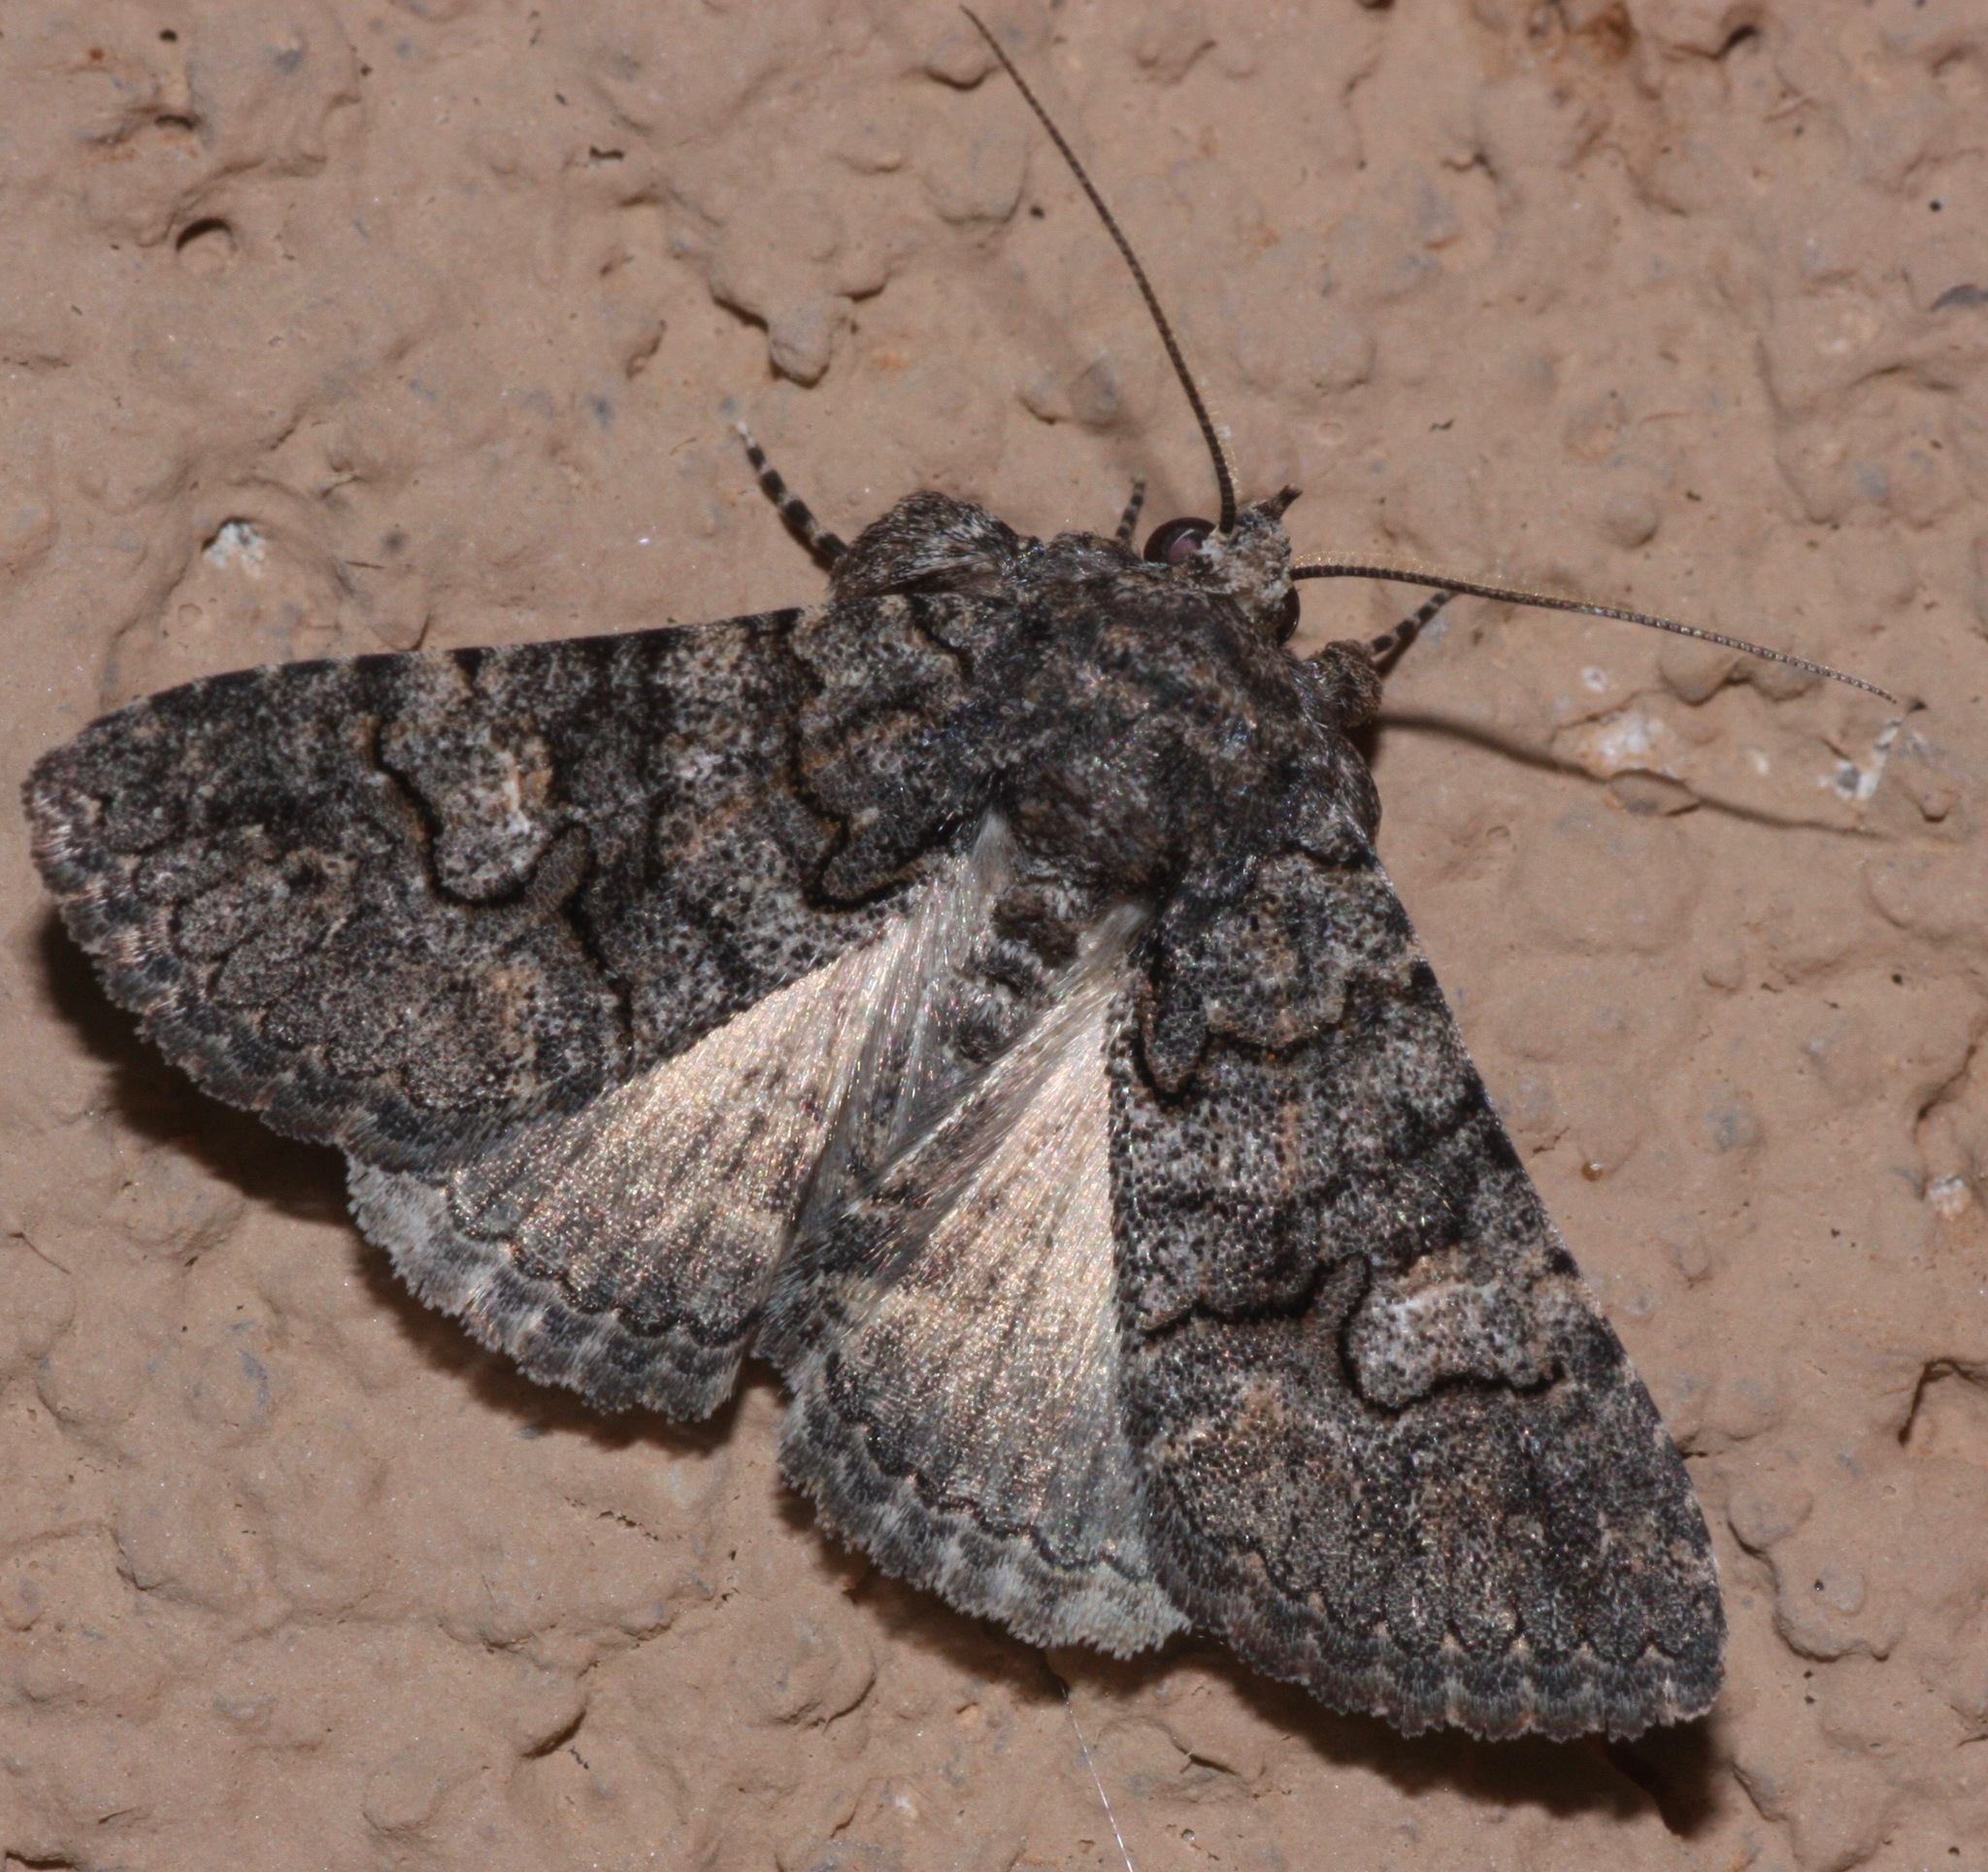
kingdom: Animalia
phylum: Arthropoda
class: Insecta
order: Lepidoptera
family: Erebidae
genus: Elousa
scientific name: Elousa mima
